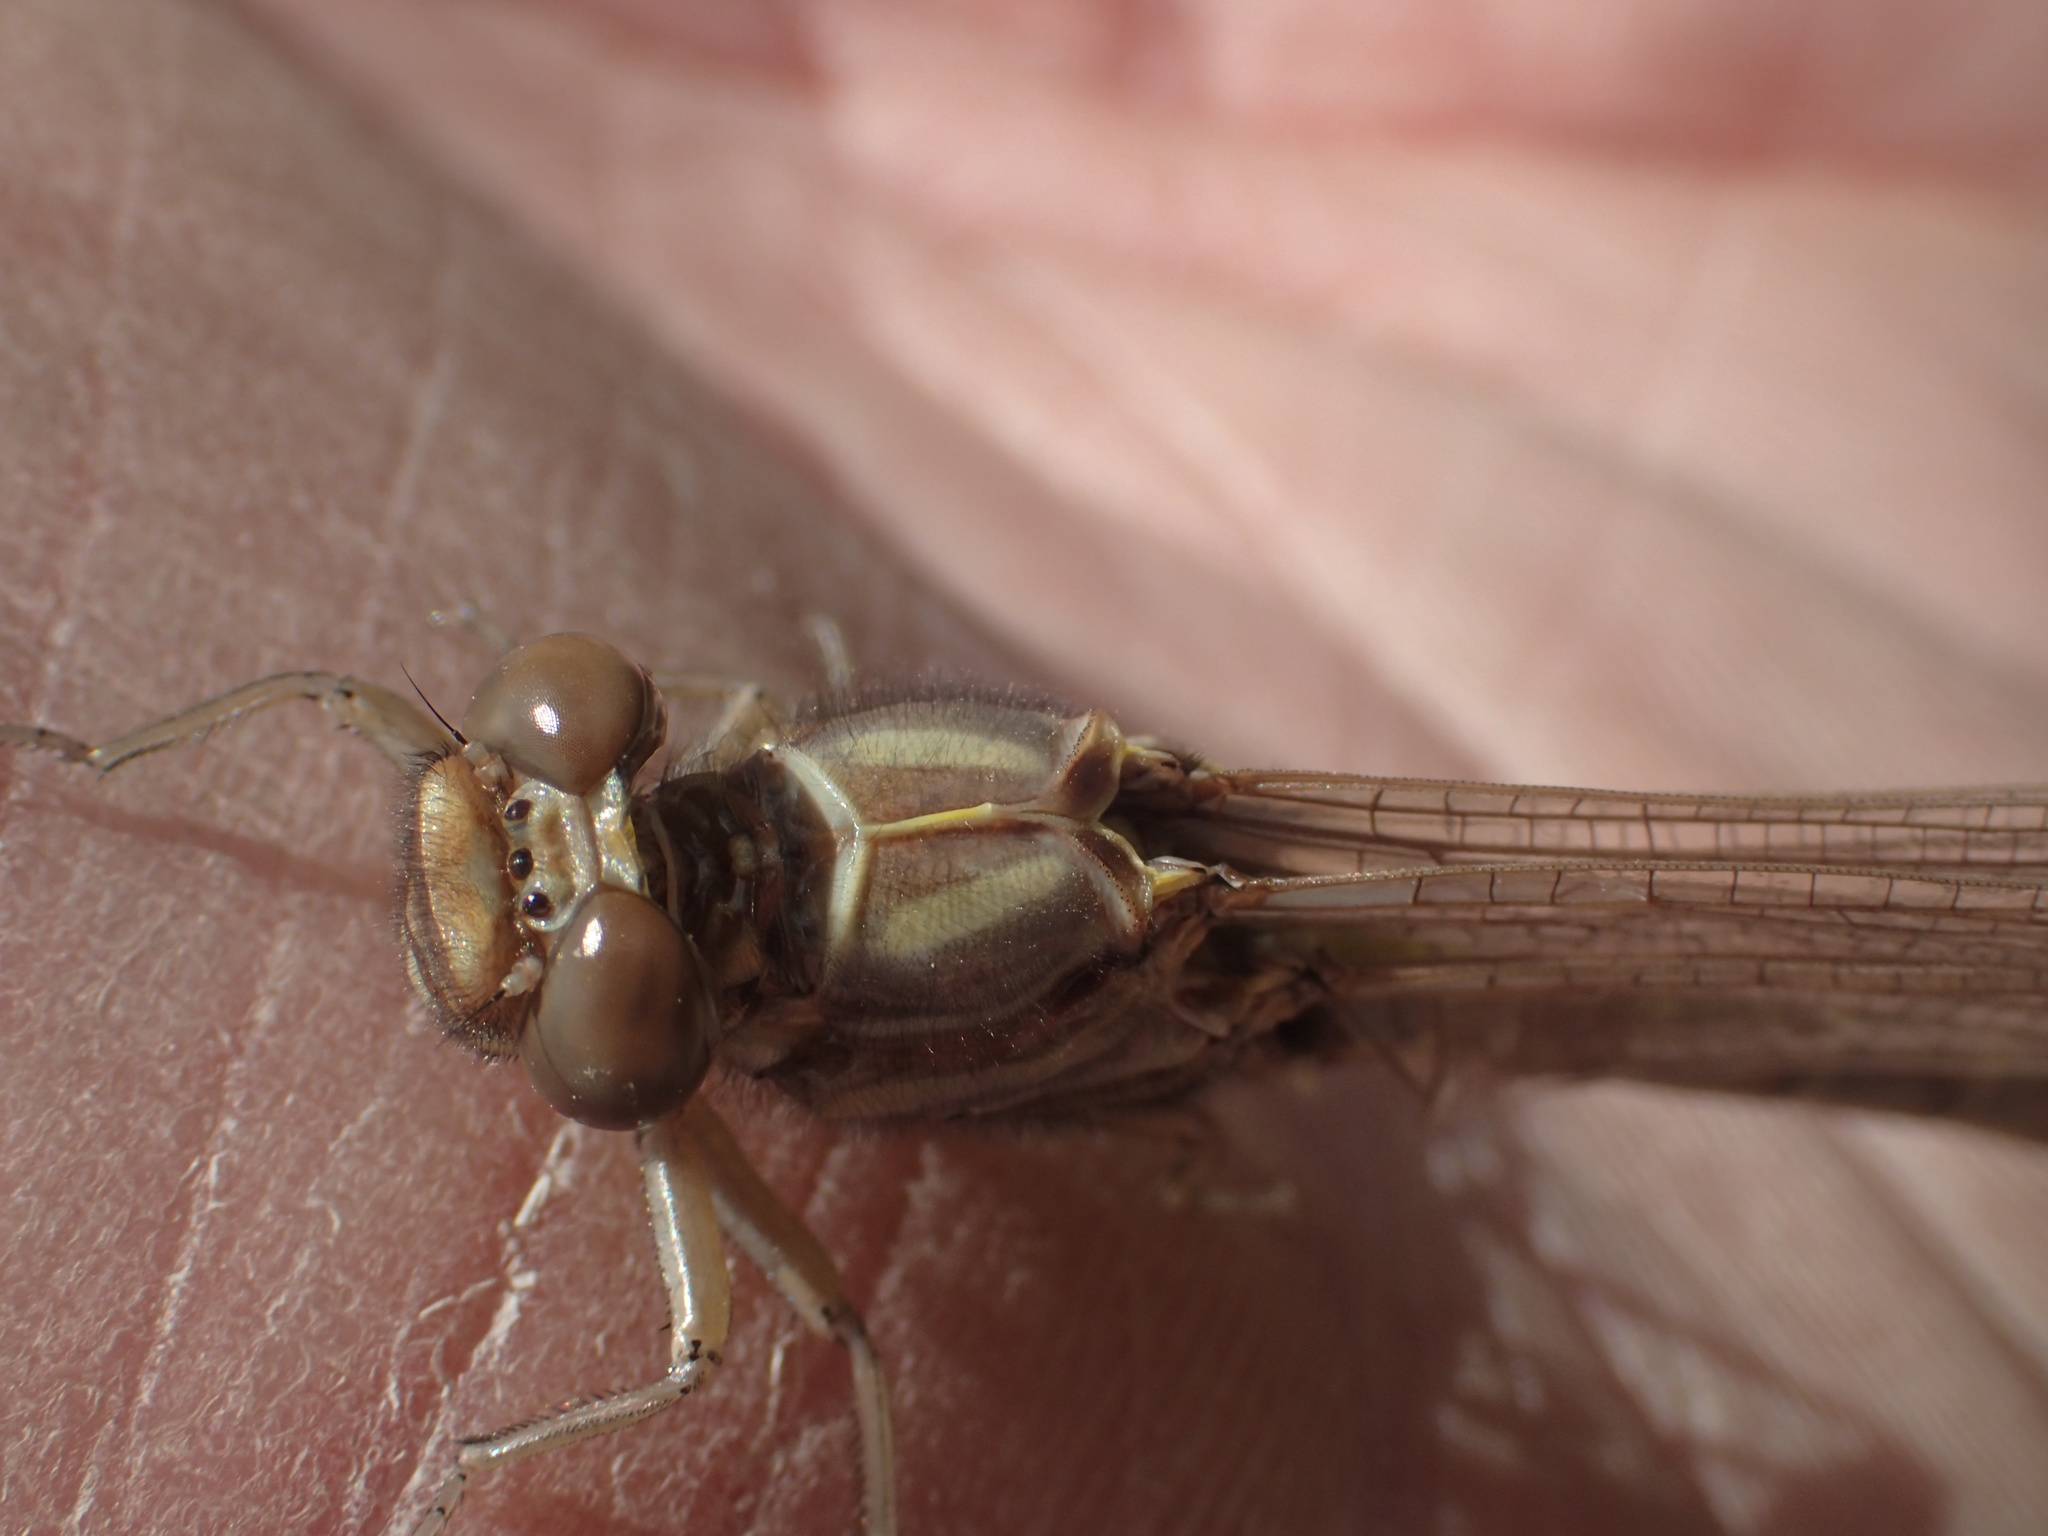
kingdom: Animalia
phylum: Arthropoda
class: Insecta
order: Odonata
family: Gomphidae
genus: Stylurus
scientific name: Stylurus notatus
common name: Elusive clubtail
